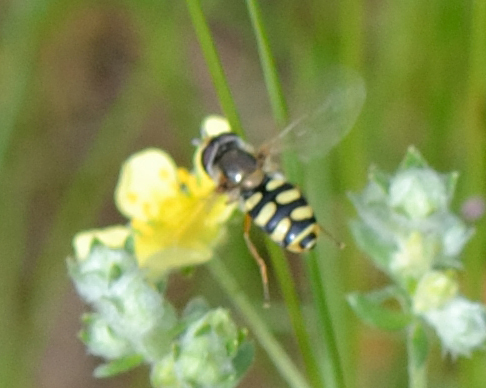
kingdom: Animalia
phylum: Arthropoda
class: Insecta
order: Diptera
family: Syrphidae
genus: Eupeodes
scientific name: Eupeodes corollae
